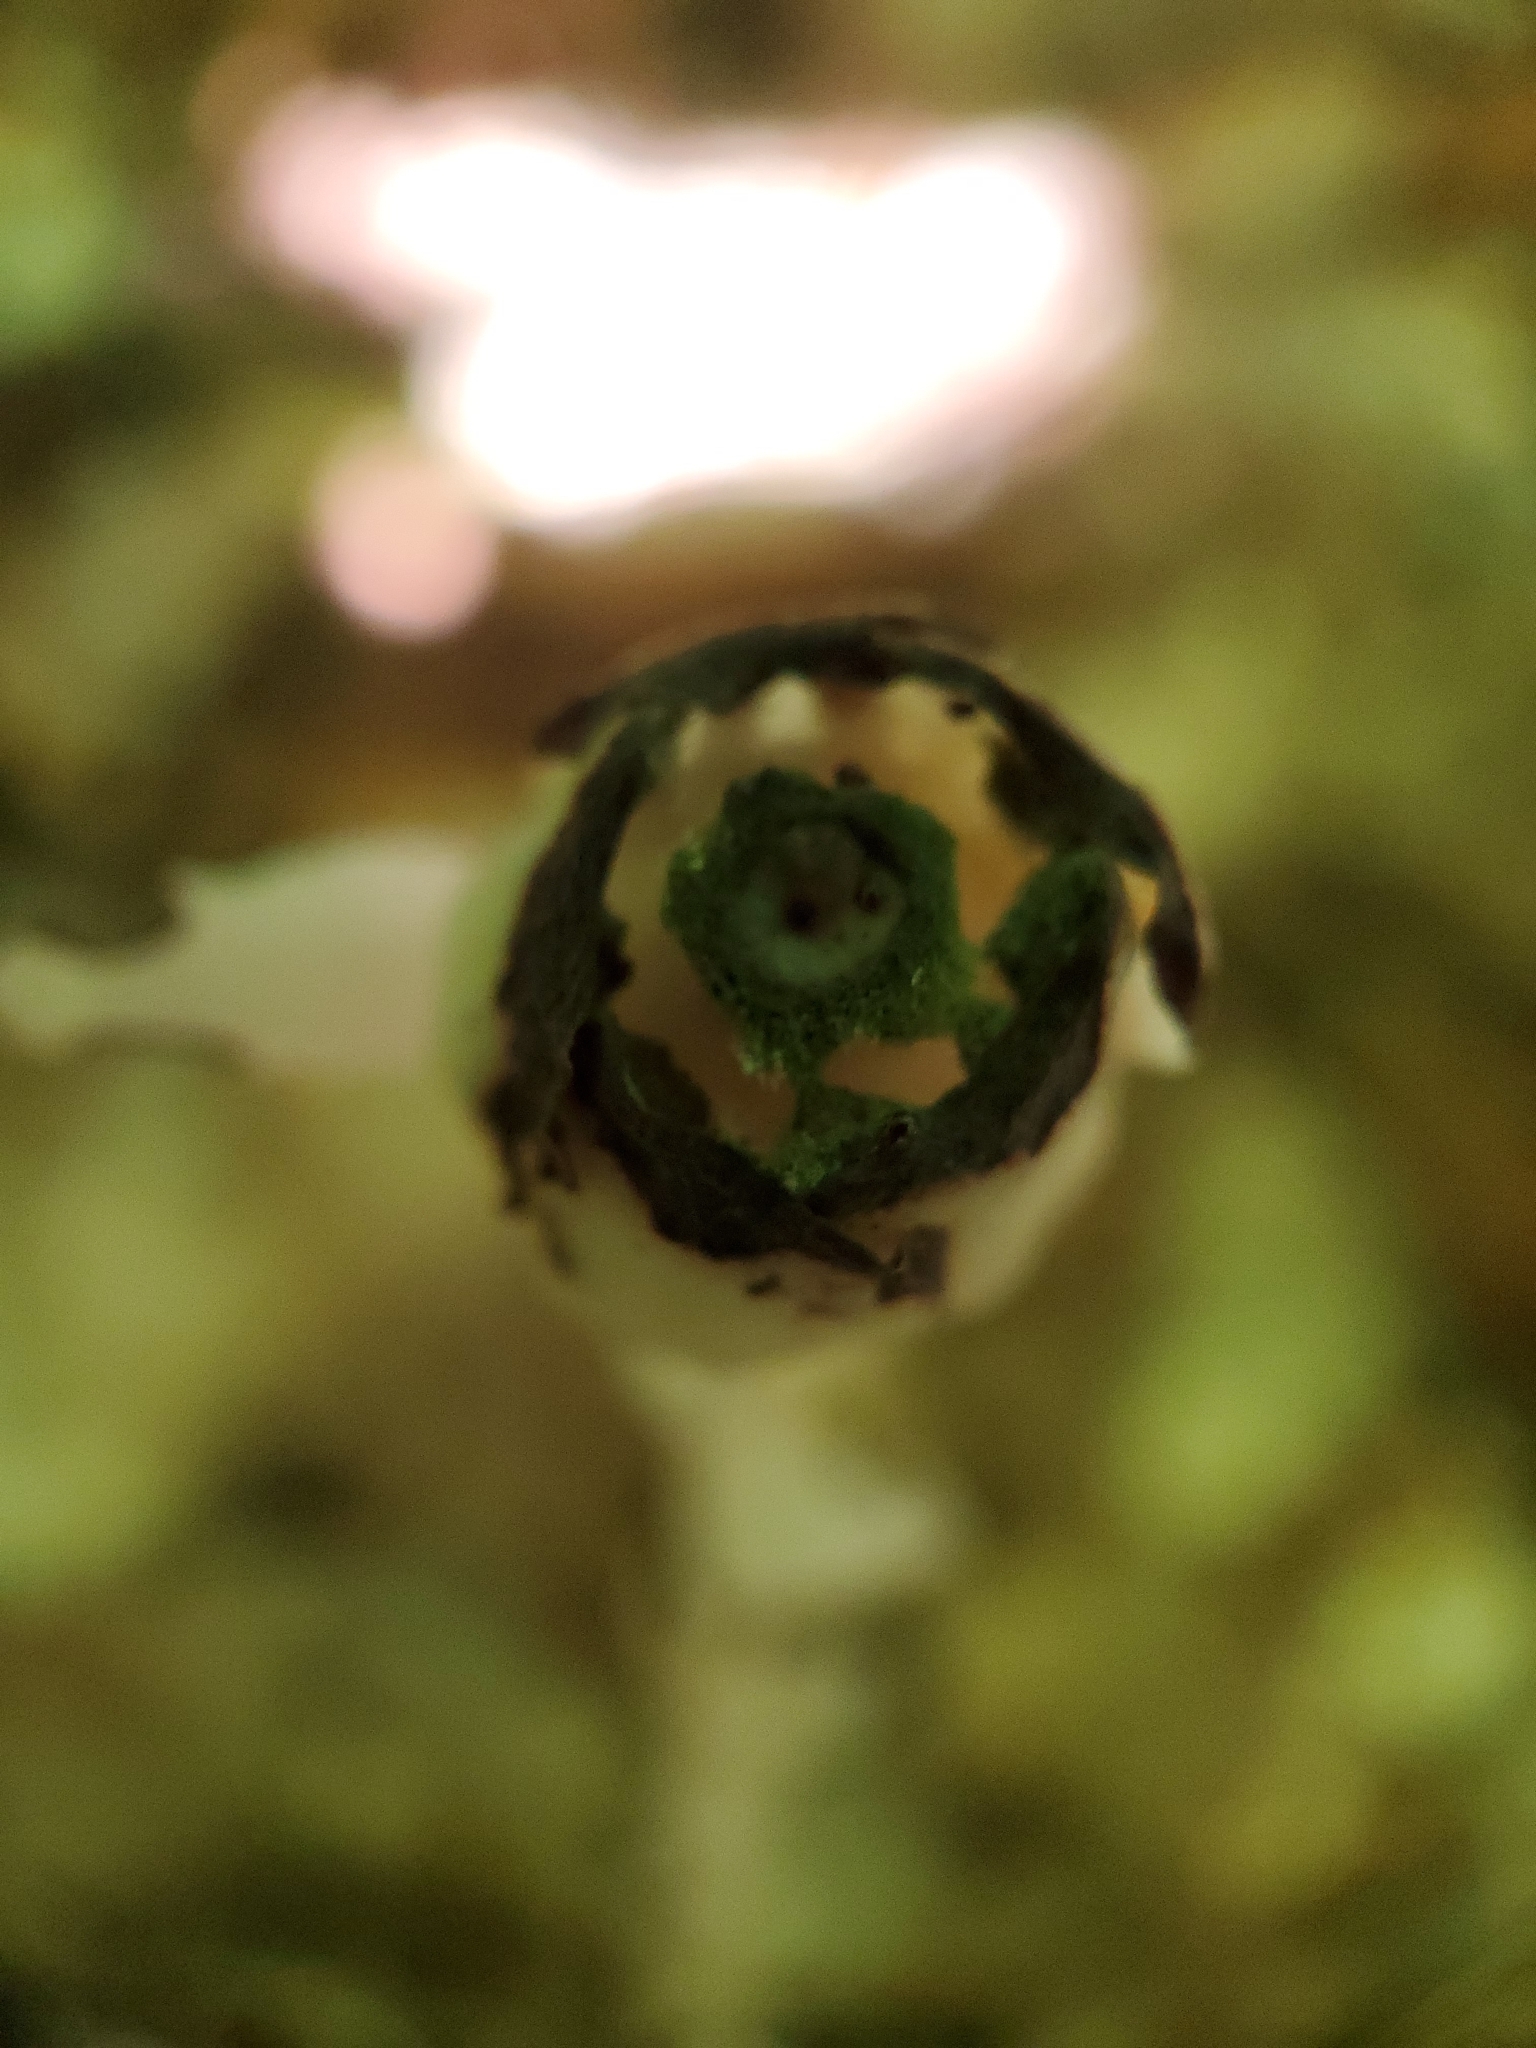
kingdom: Plantae
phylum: Tracheophyta
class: Magnoliopsida
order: Ericales
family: Ericaceae
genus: Monotropa
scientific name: Monotropa uniflora
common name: Convulsion root
